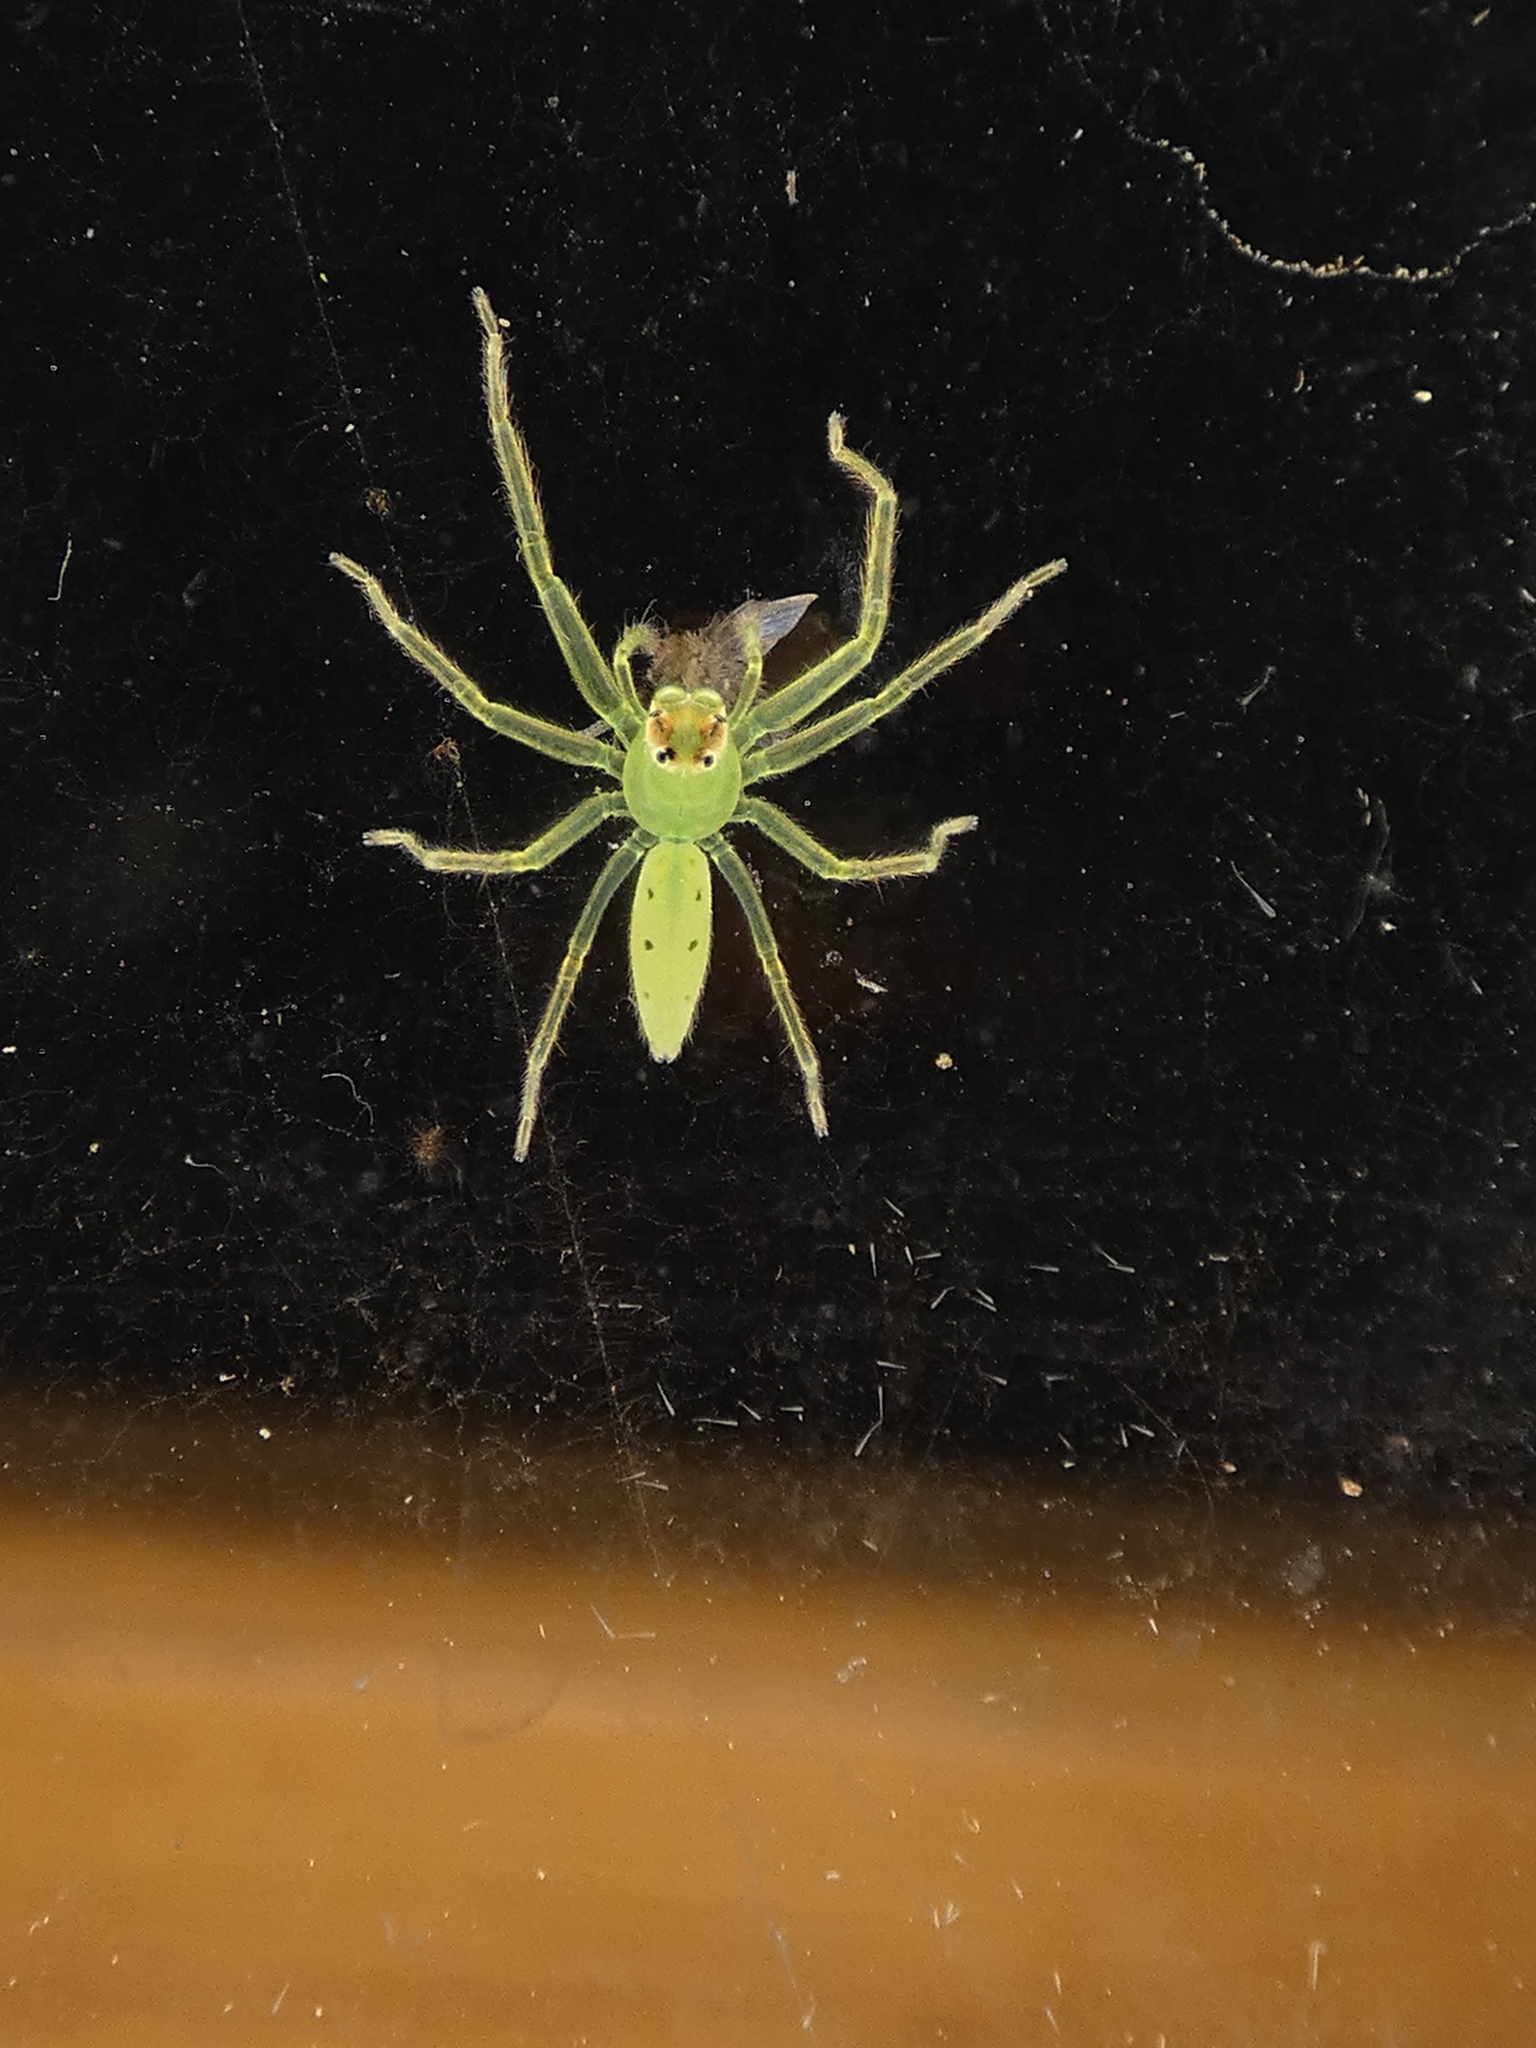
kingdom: Animalia
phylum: Arthropoda
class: Arachnida
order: Araneae
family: Salticidae
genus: Lyssomanes
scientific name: Lyssomanes viridis
